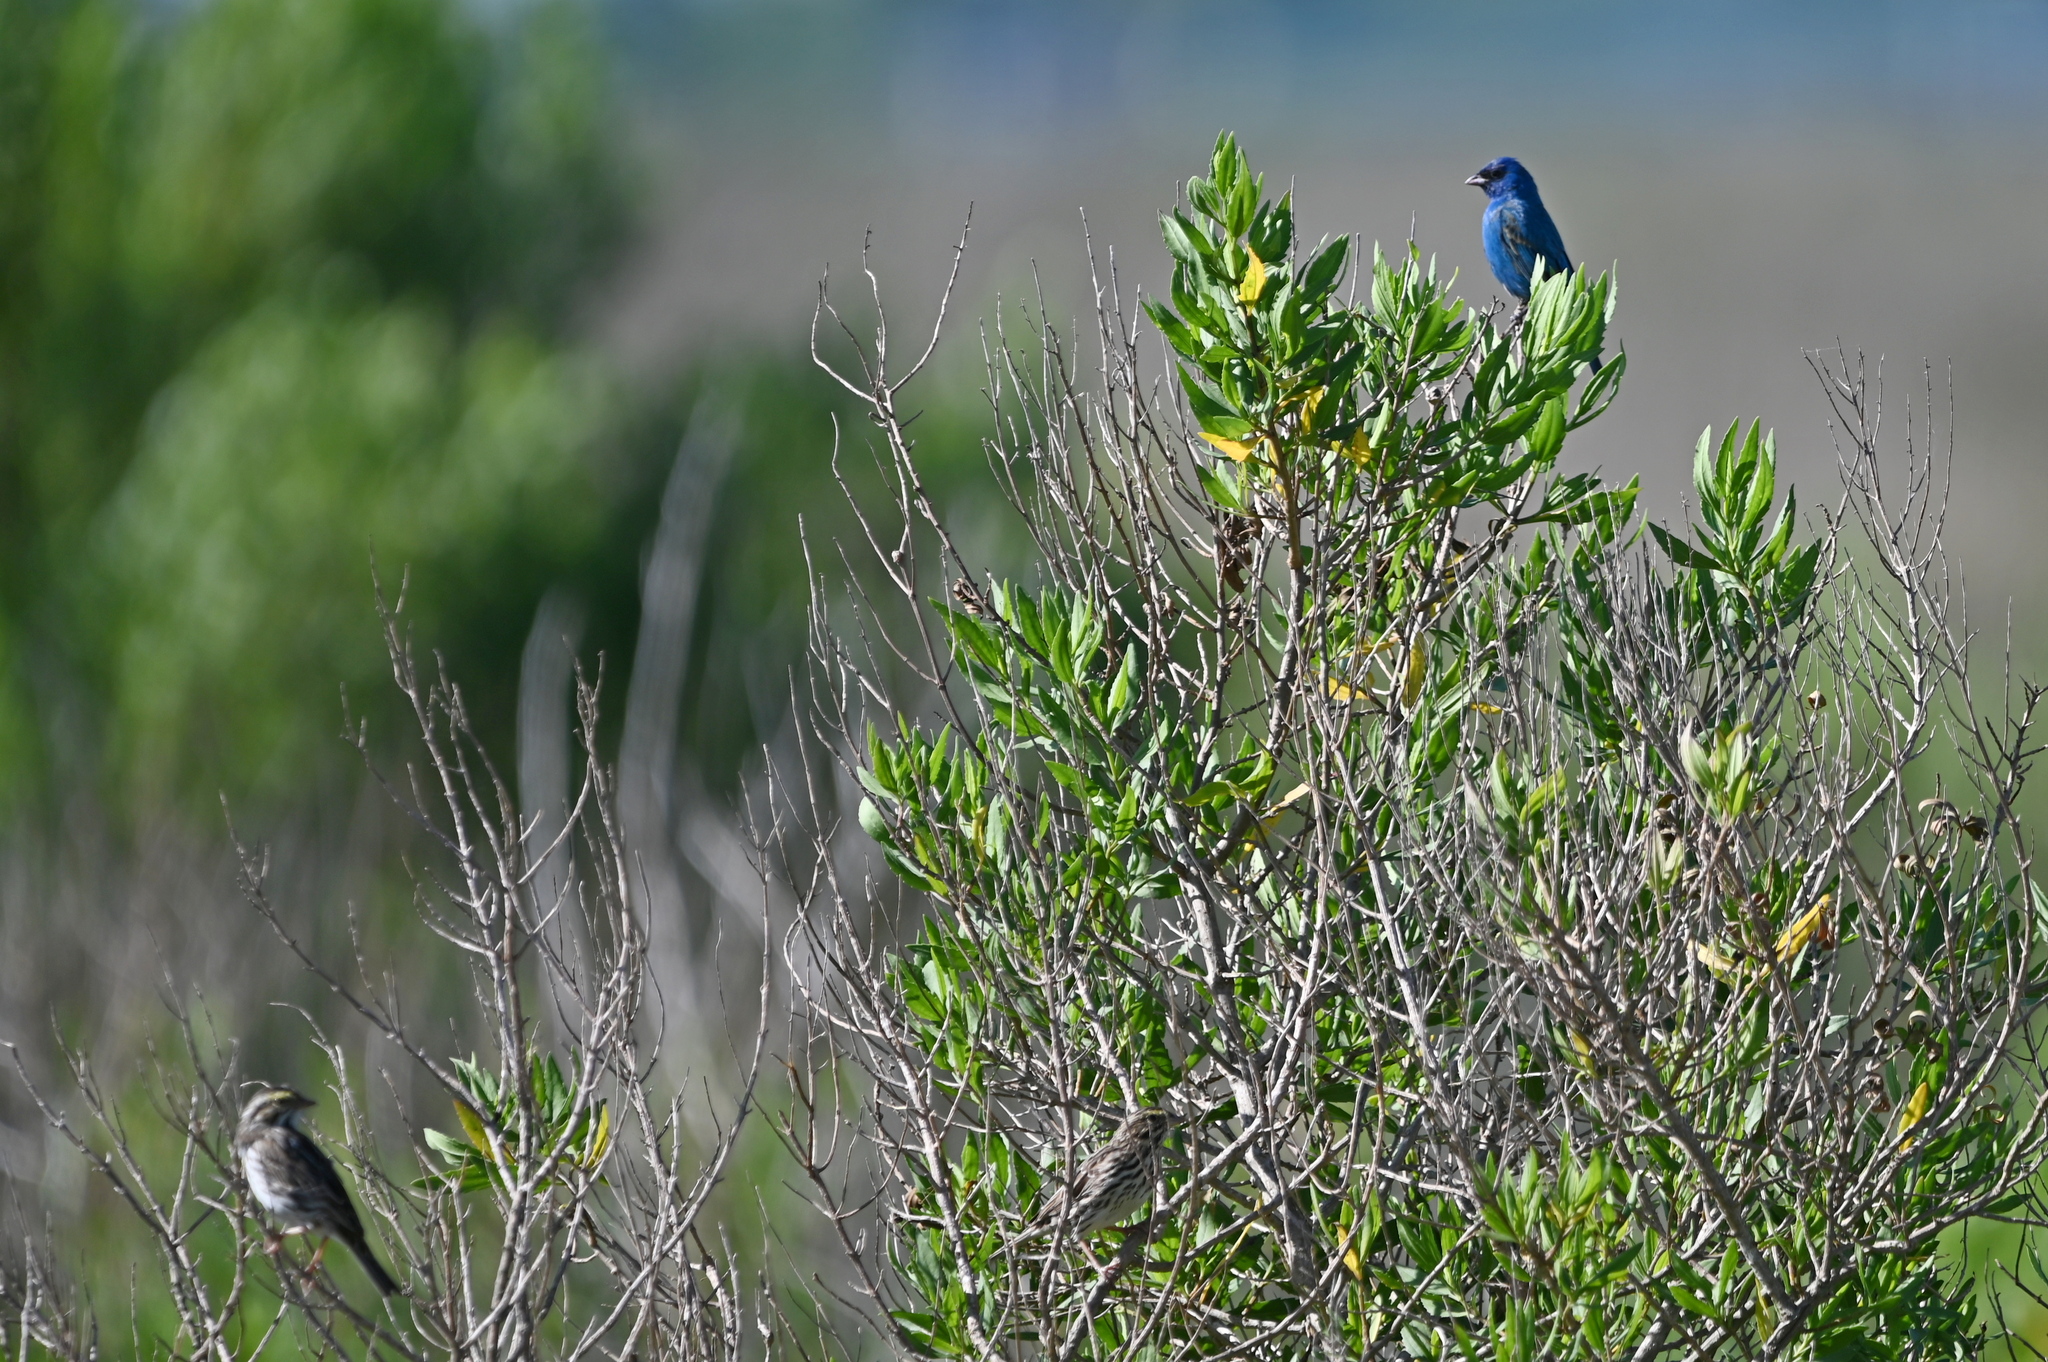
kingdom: Animalia
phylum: Chordata
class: Aves
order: Passeriformes
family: Cardinalidae
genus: Passerina
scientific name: Passerina cyanea
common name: Indigo bunting
